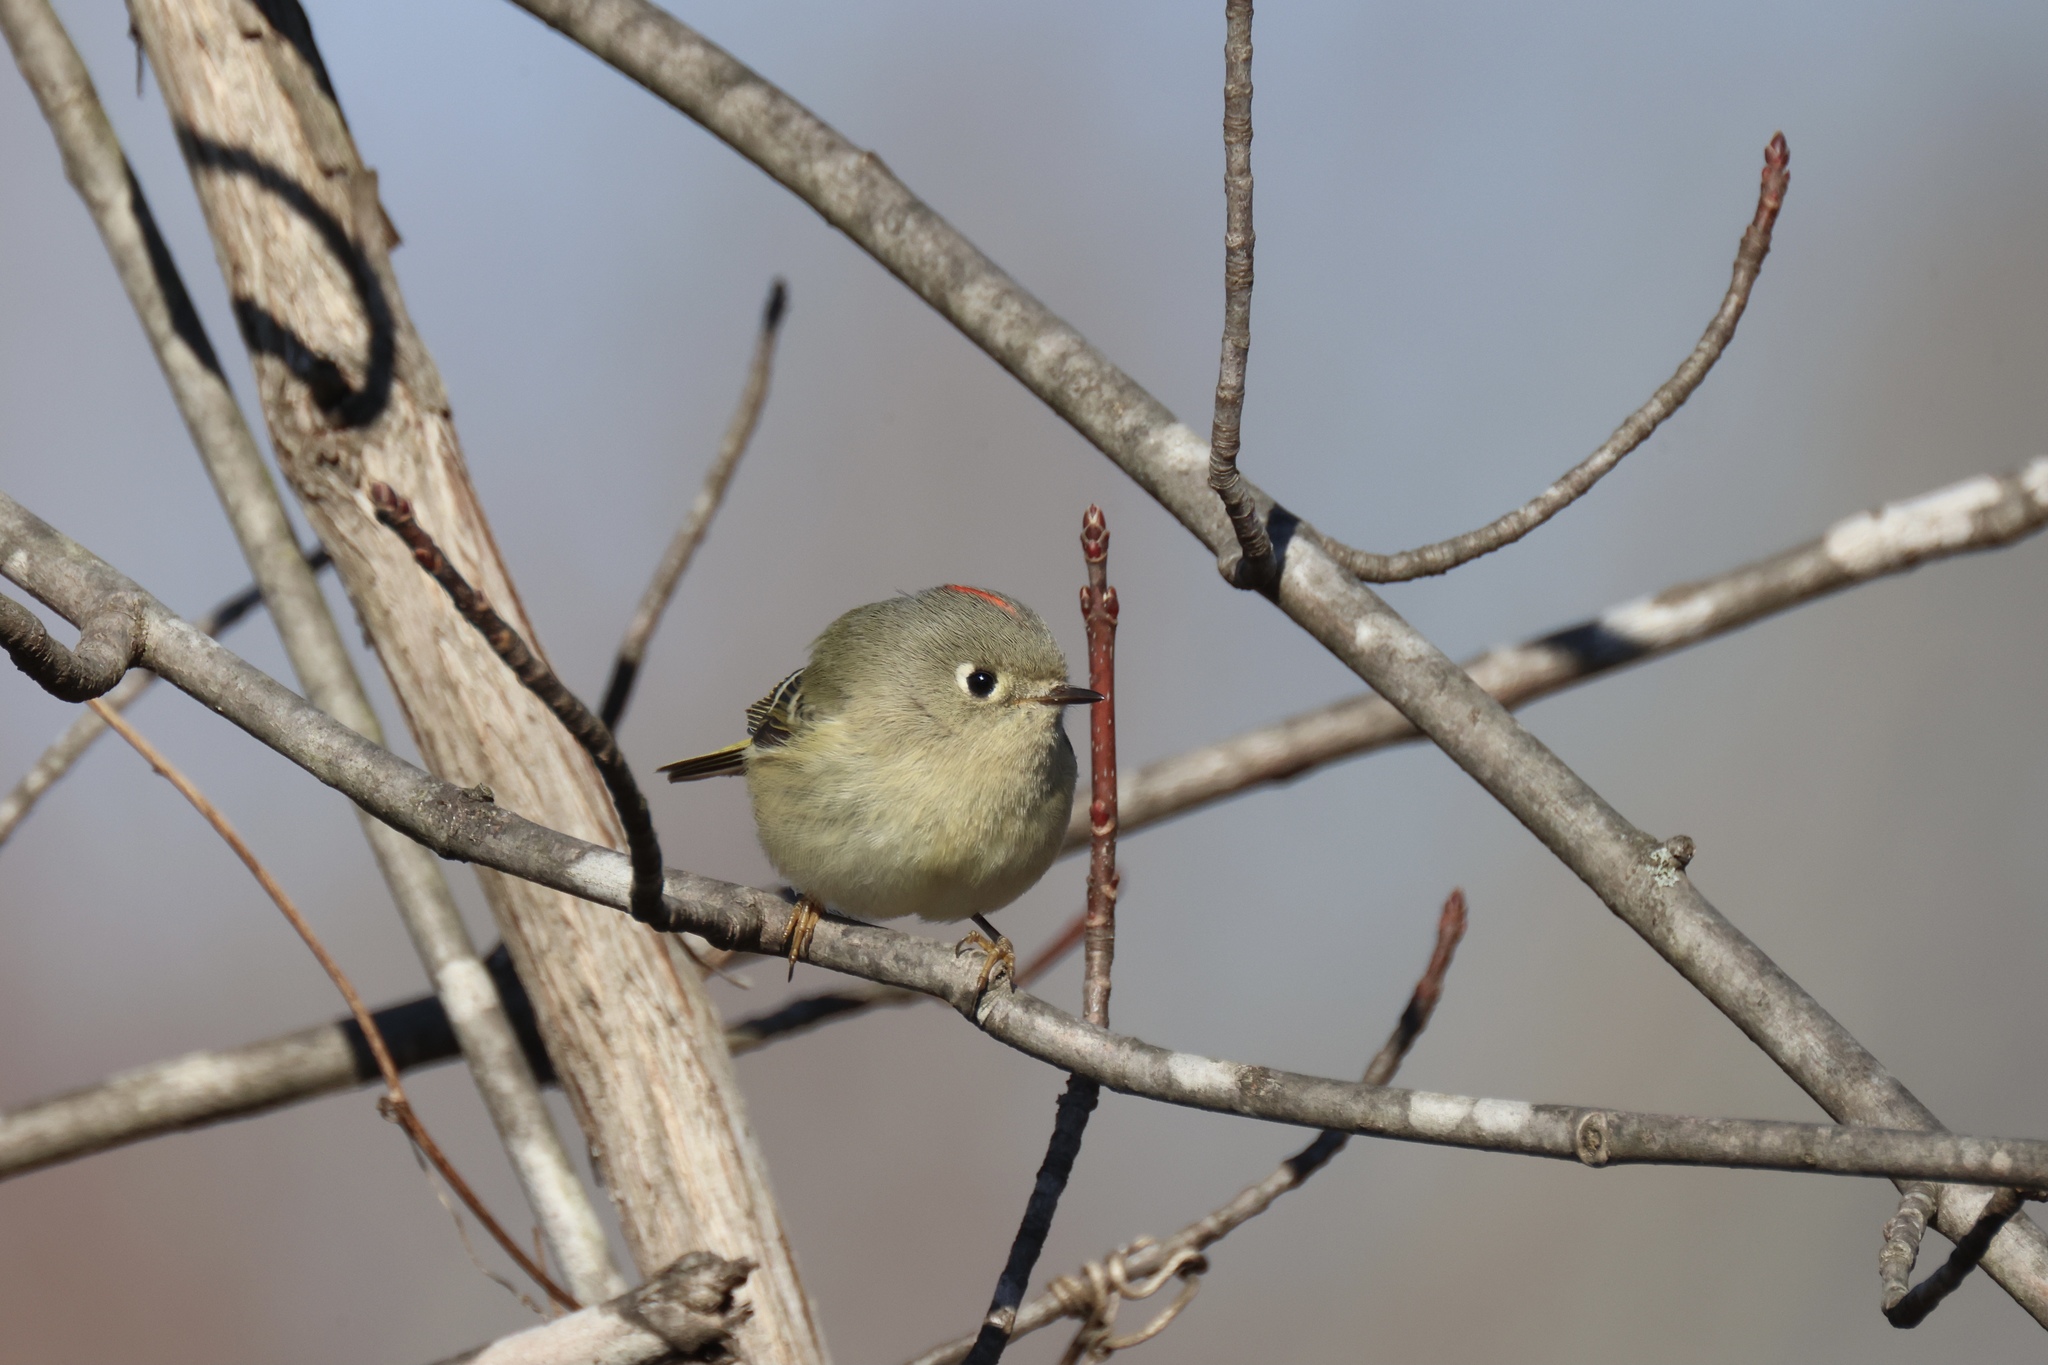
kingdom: Animalia
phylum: Chordata
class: Aves
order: Passeriformes
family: Regulidae
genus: Regulus
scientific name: Regulus calendula
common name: Ruby-crowned kinglet
